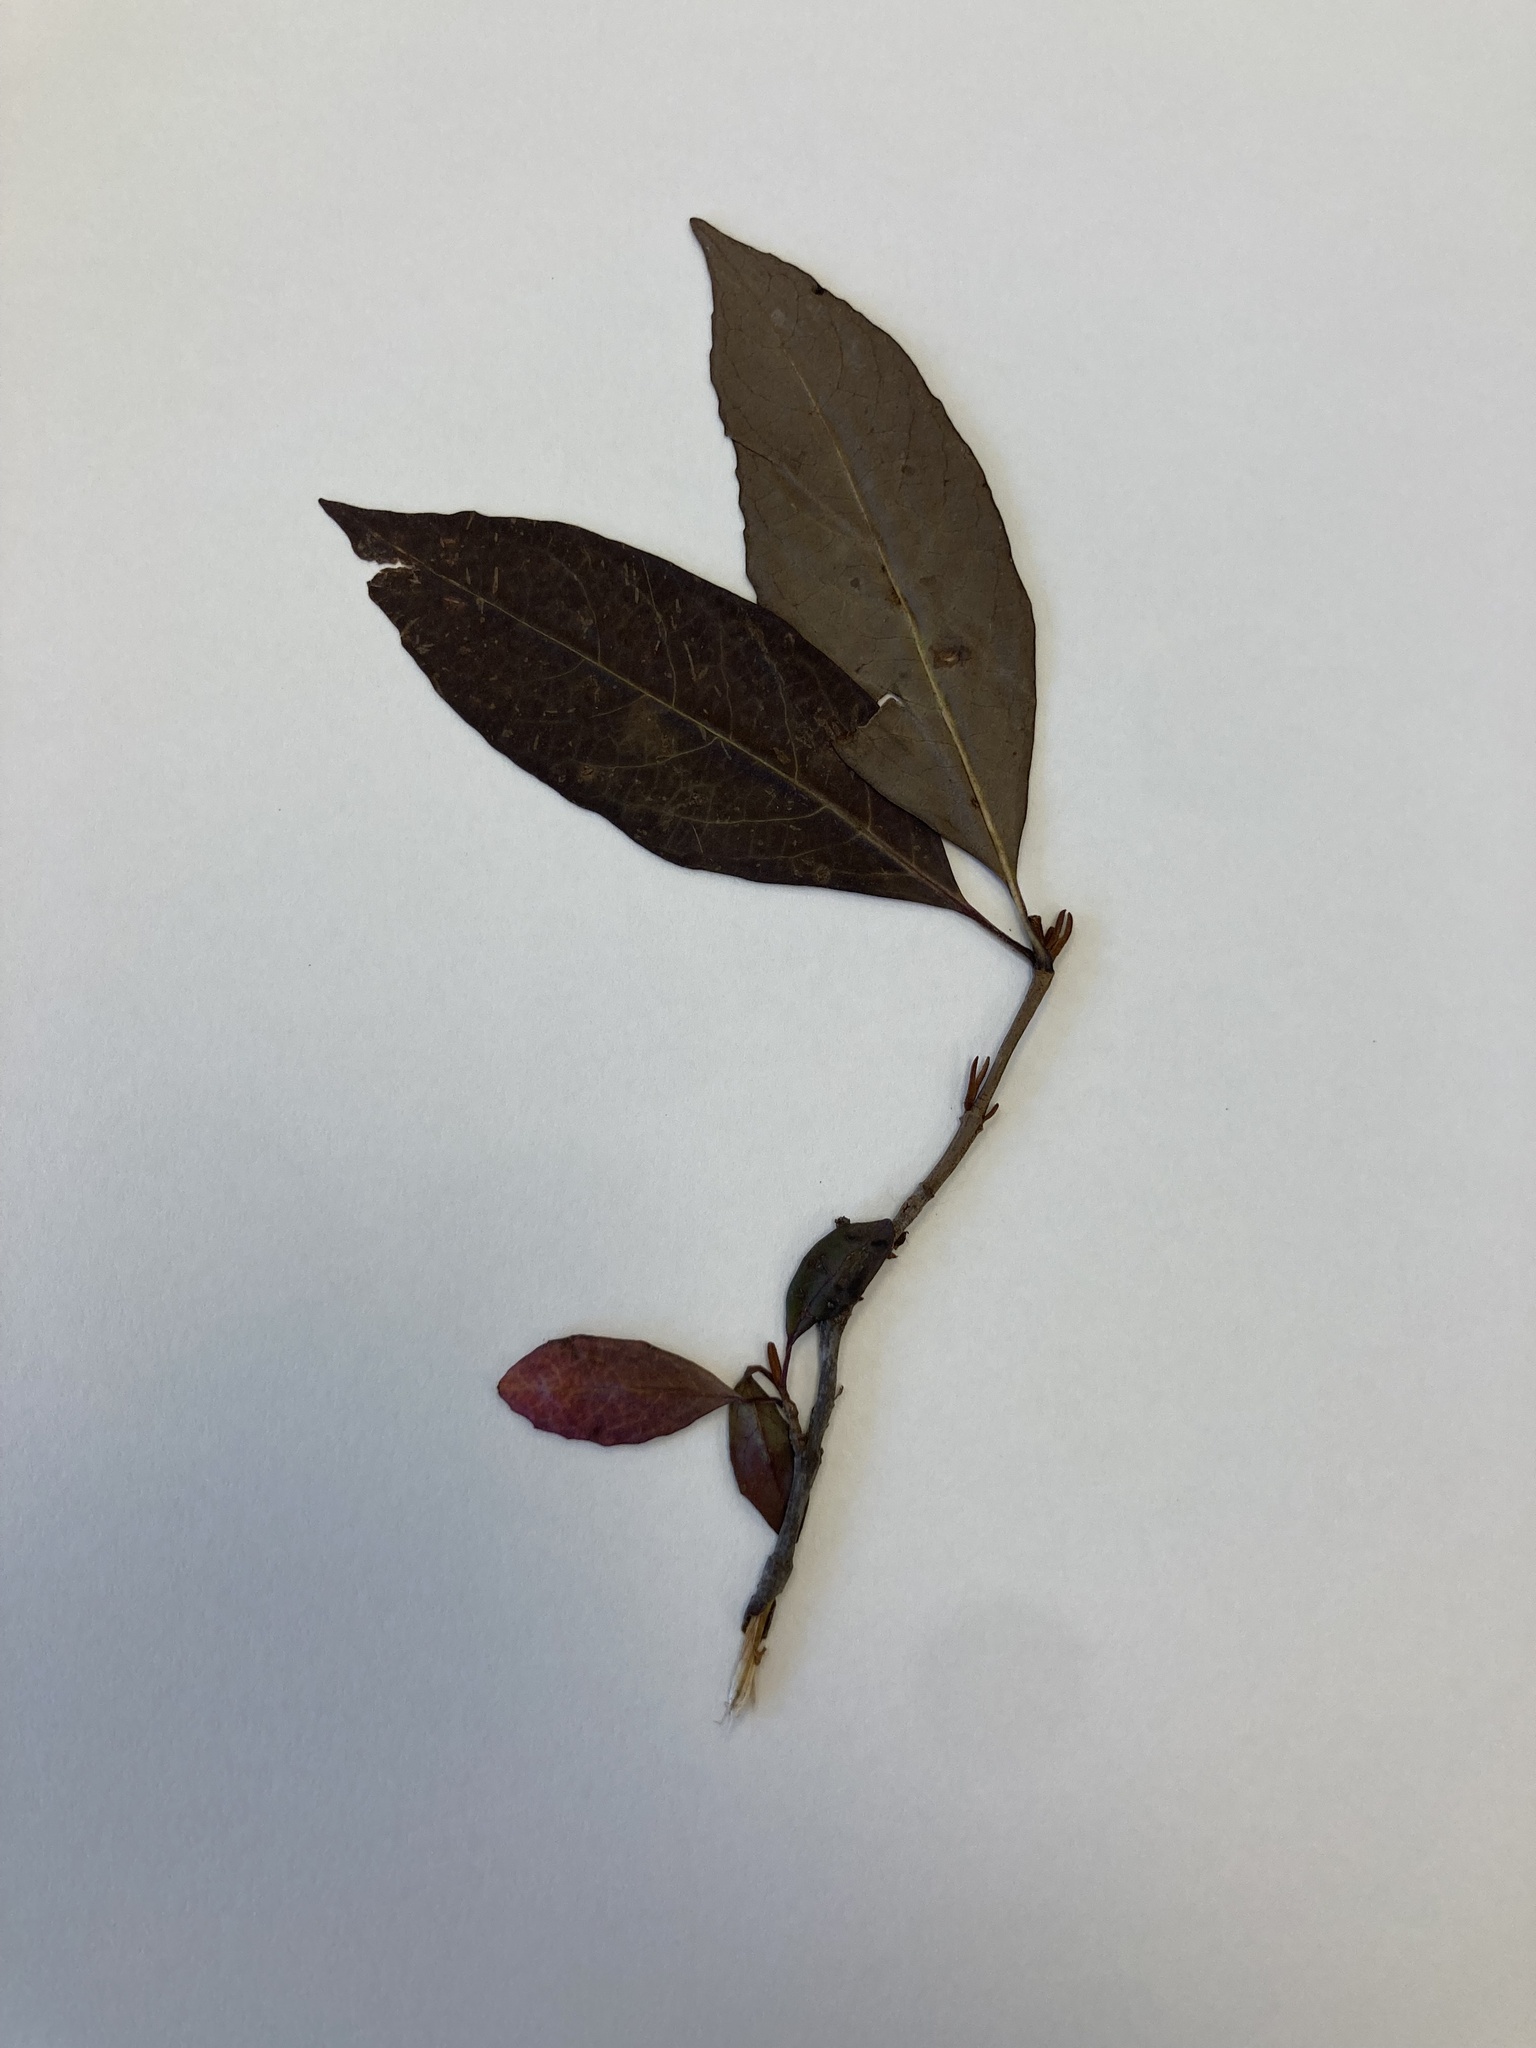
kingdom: Plantae
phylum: Tracheophyta
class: Magnoliopsida
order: Dipsacales
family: Viburnaceae
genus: Viburnum
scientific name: Viburnum cassinoides
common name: Swamp haw
